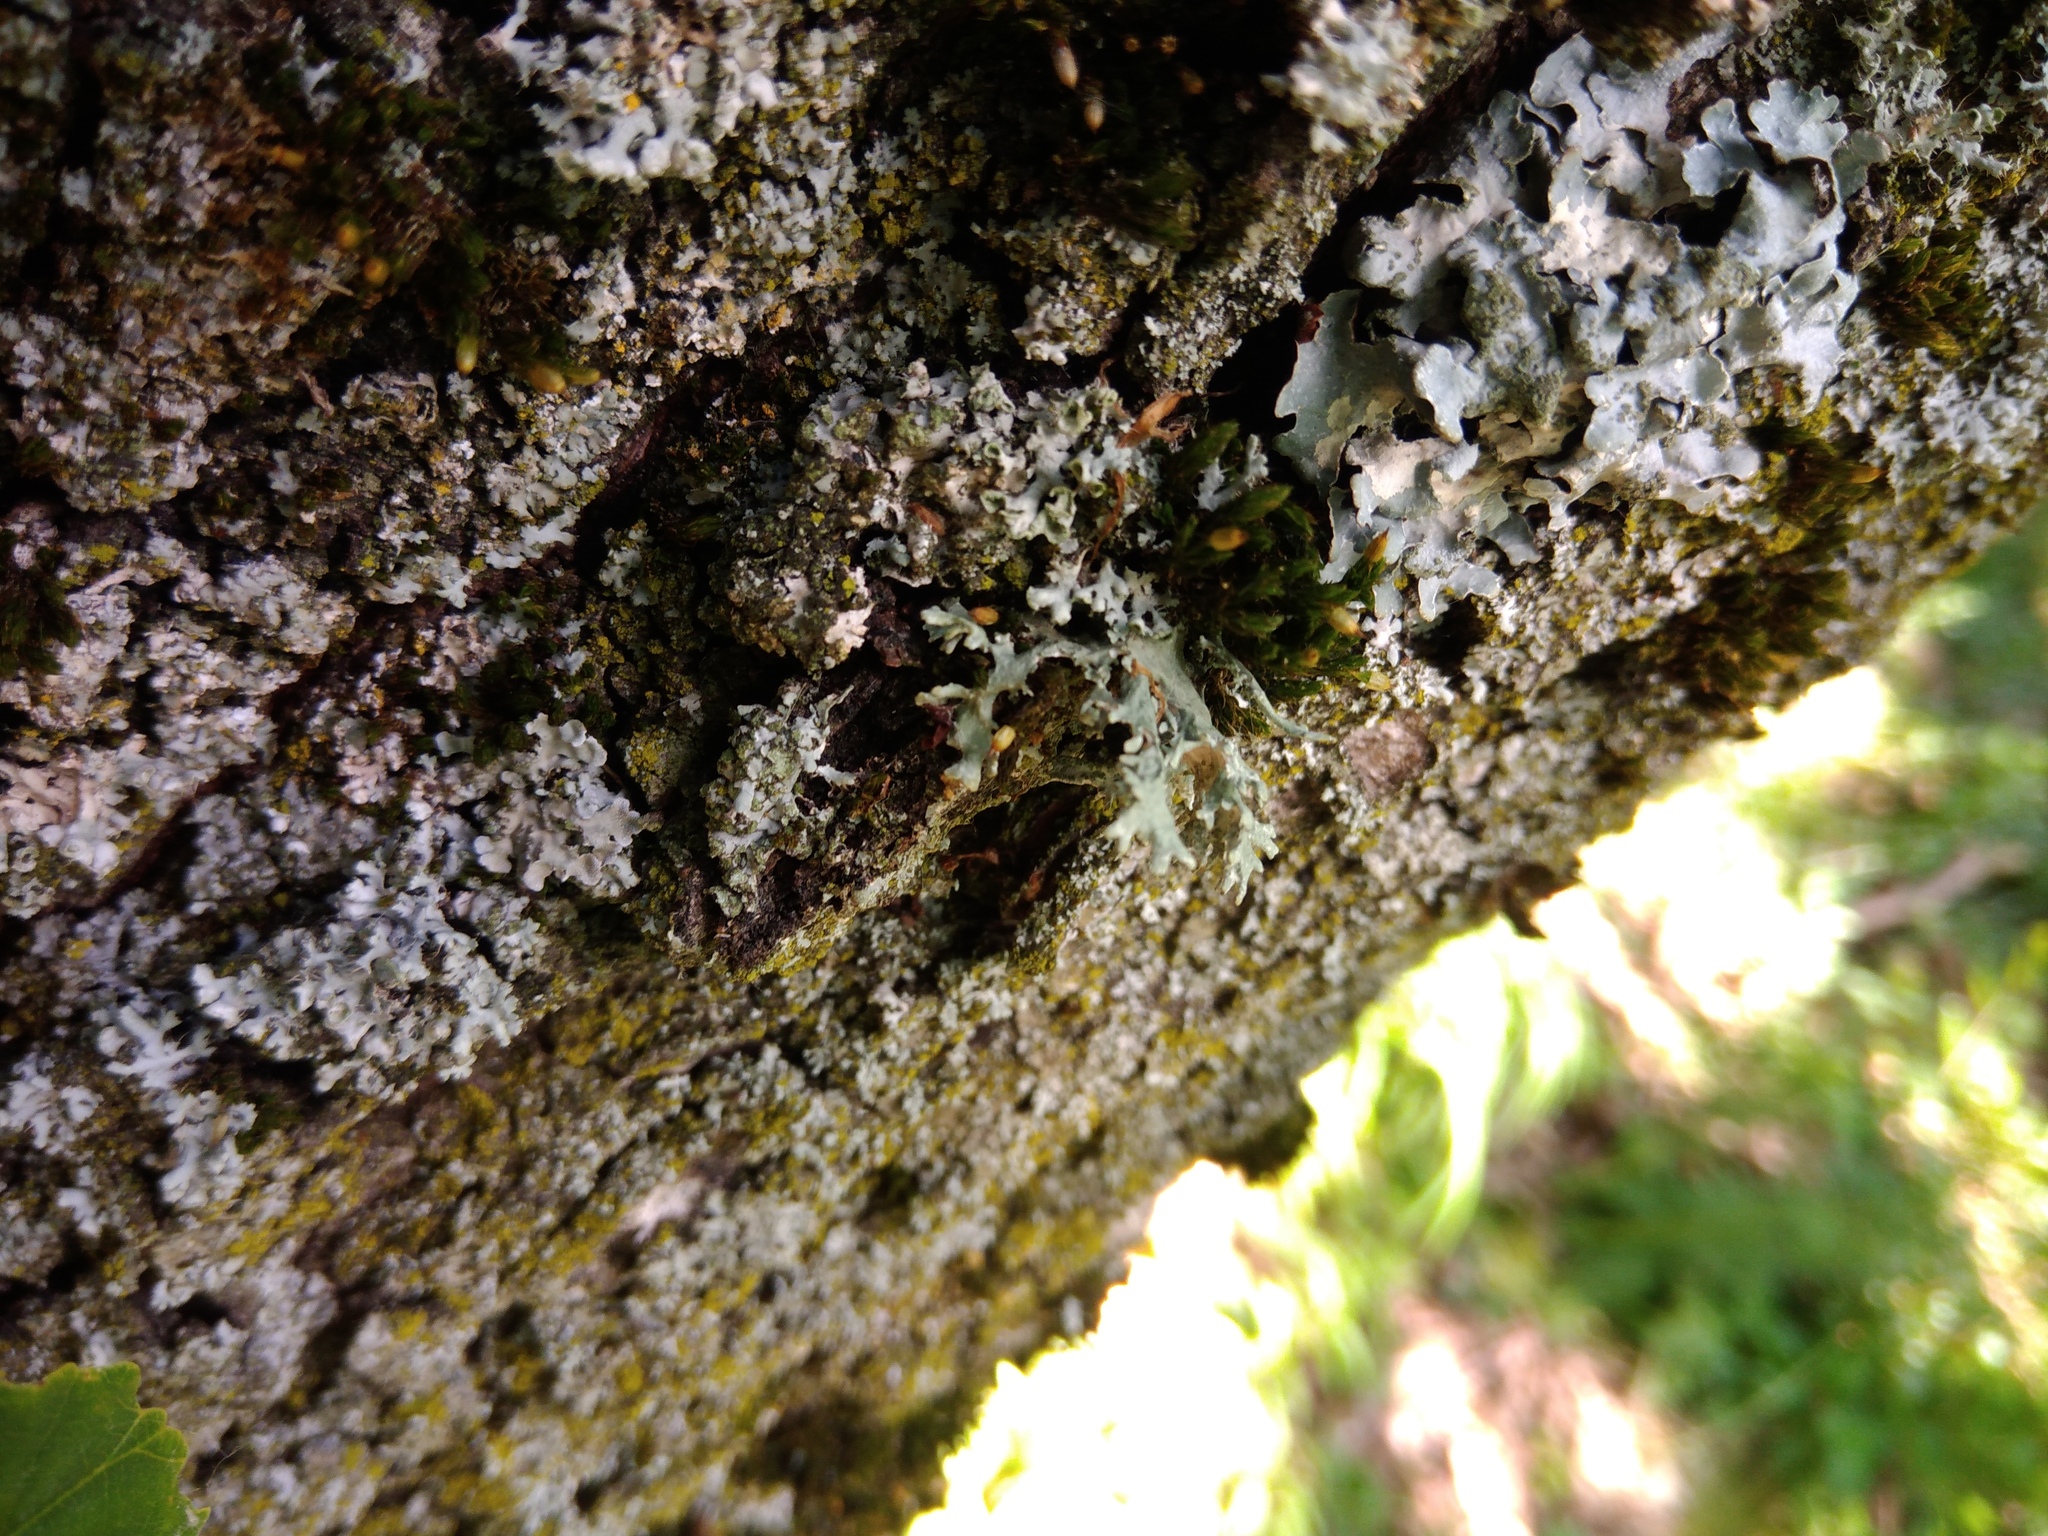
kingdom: Fungi
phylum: Ascomycota
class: Lecanoromycetes
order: Lecanorales
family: Parmeliaceae
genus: Evernia
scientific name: Evernia prunastri
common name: Oak moss
